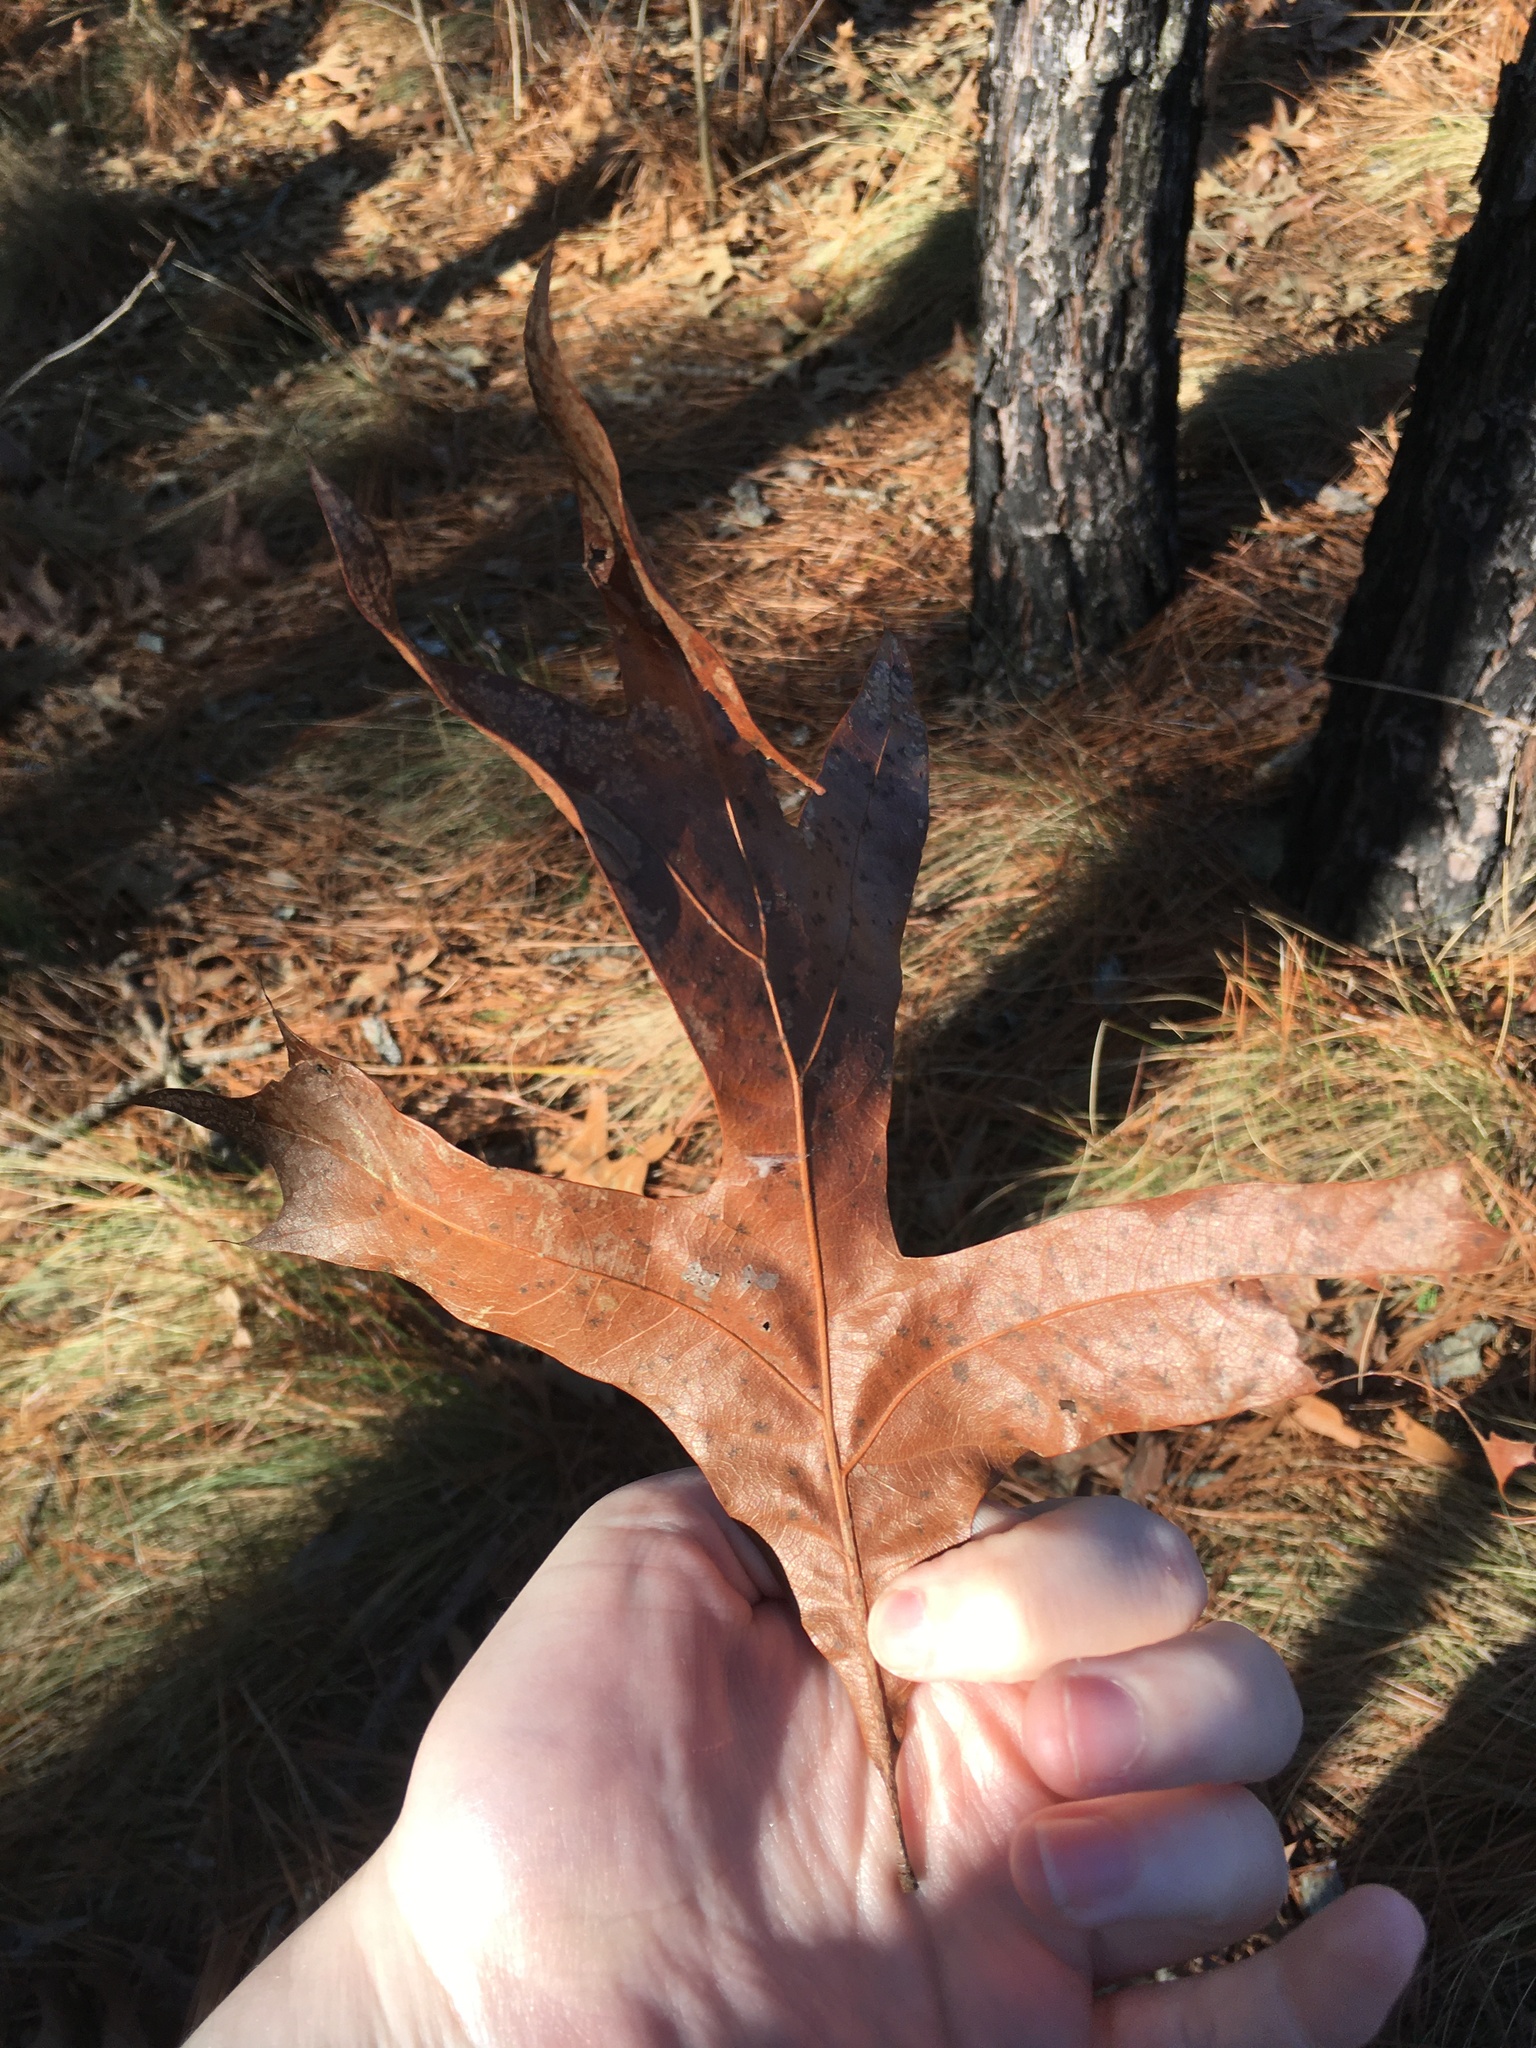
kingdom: Plantae
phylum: Tracheophyta
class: Magnoliopsida
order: Fagales
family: Fagaceae
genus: Quercus
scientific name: Quercus laevis
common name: Turkey oak
